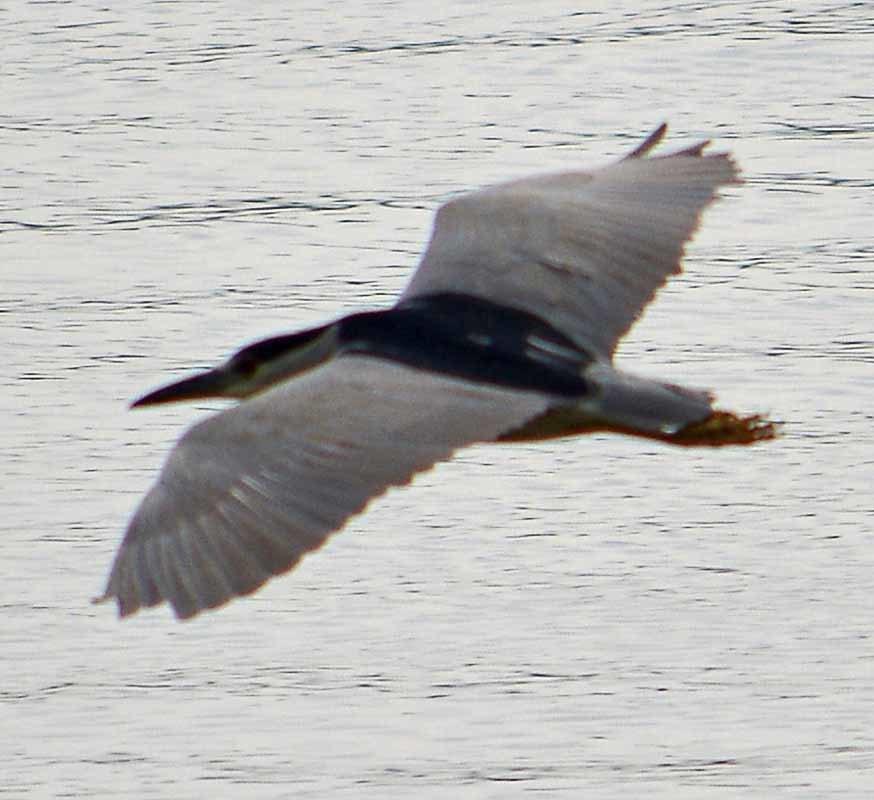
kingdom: Animalia
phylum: Chordata
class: Aves
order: Pelecaniformes
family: Ardeidae
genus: Nycticorax
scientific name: Nycticorax nycticorax
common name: Black-crowned night heron
